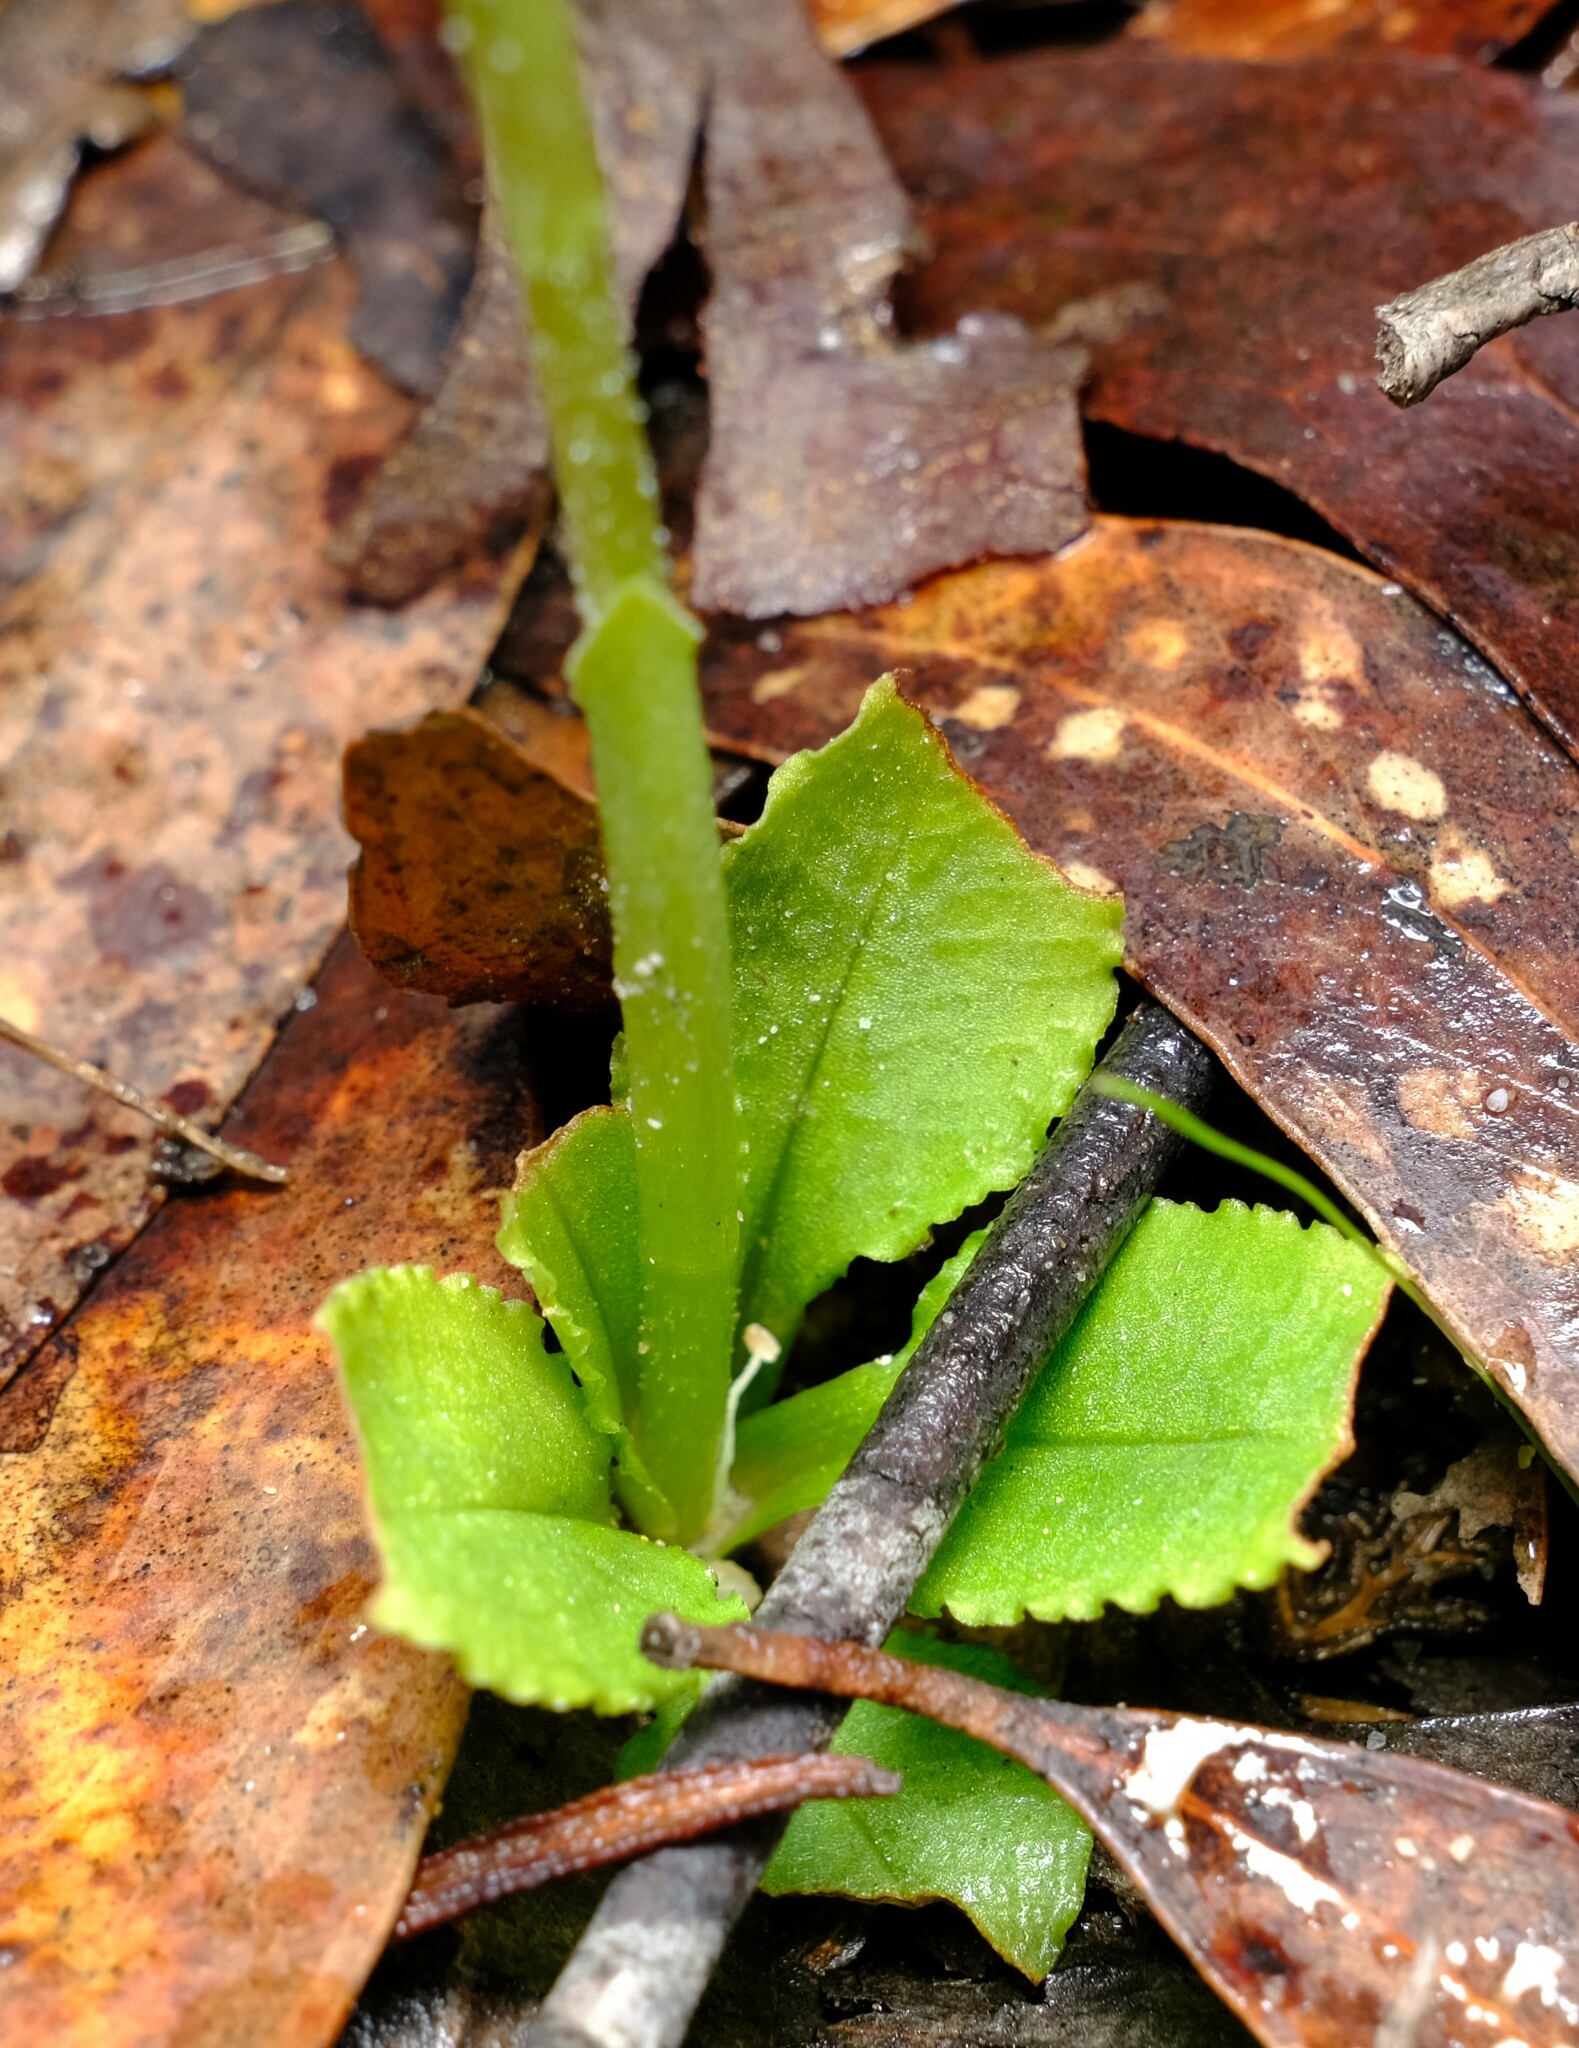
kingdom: Plantae
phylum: Tracheophyta
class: Liliopsida
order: Asparagales
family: Orchidaceae
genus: Pterostylis
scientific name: Pterostylis nutans
